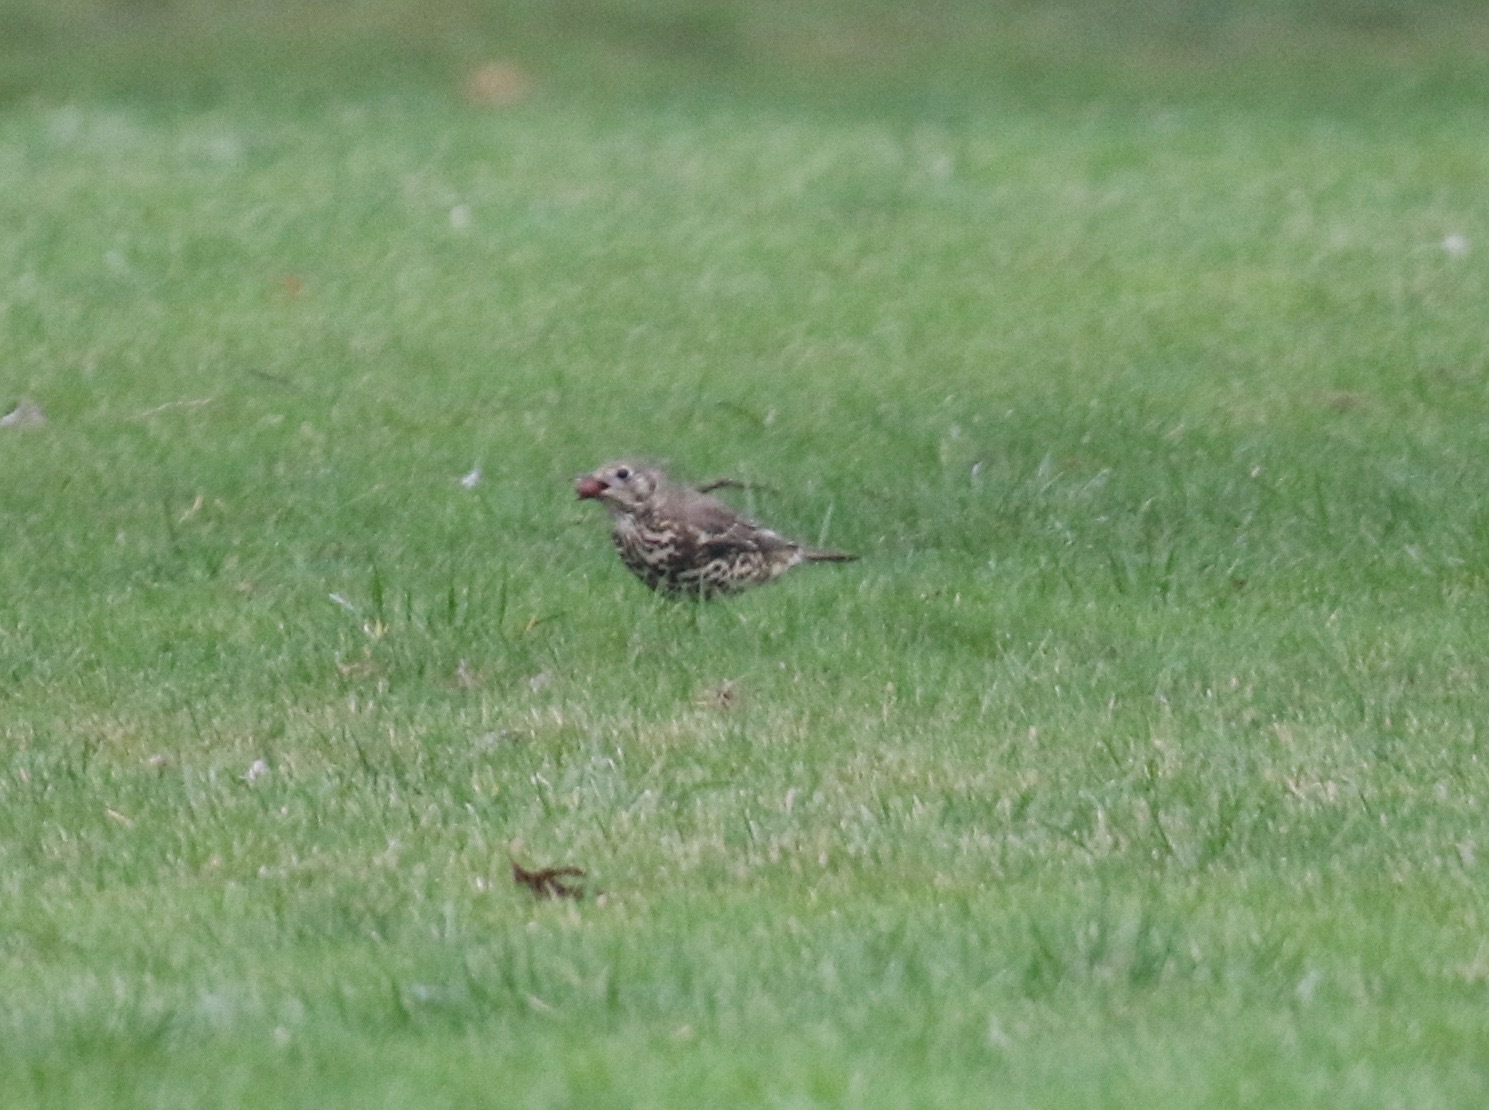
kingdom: Animalia
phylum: Chordata
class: Aves
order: Passeriformes
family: Turdidae
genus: Turdus
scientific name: Turdus viscivorus
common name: Mistle thrush
